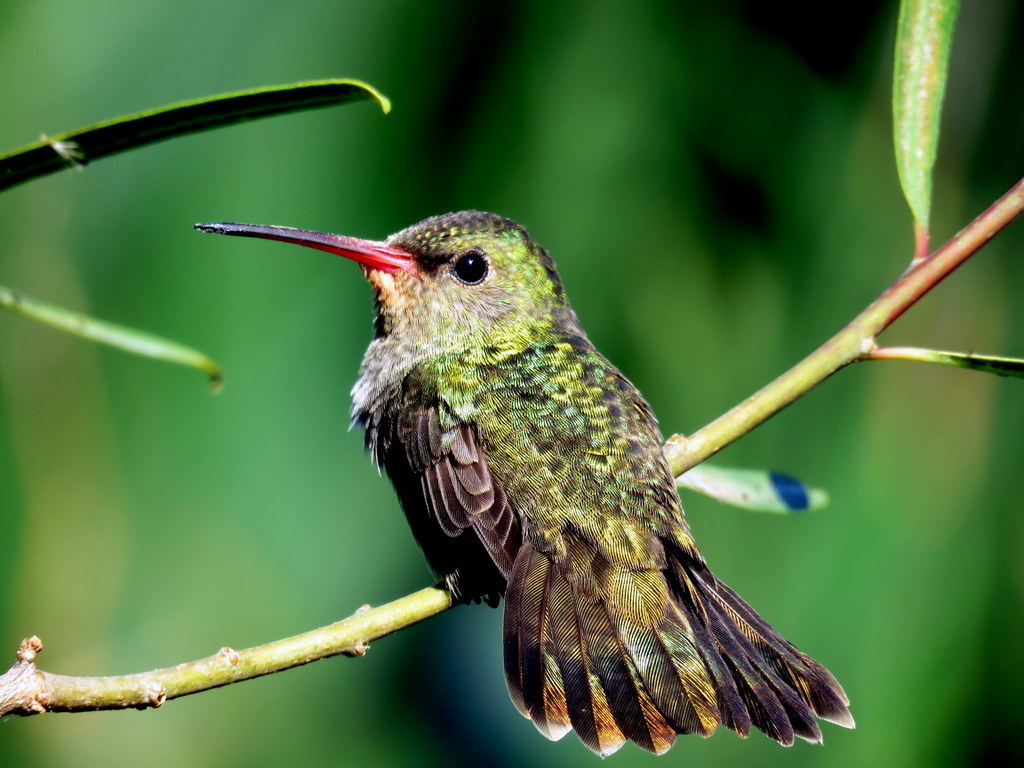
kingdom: Animalia
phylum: Chordata
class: Aves
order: Apodiformes
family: Trochilidae
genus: Hylocharis
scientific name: Hylocharis chrysura
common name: Gilded sapphire
